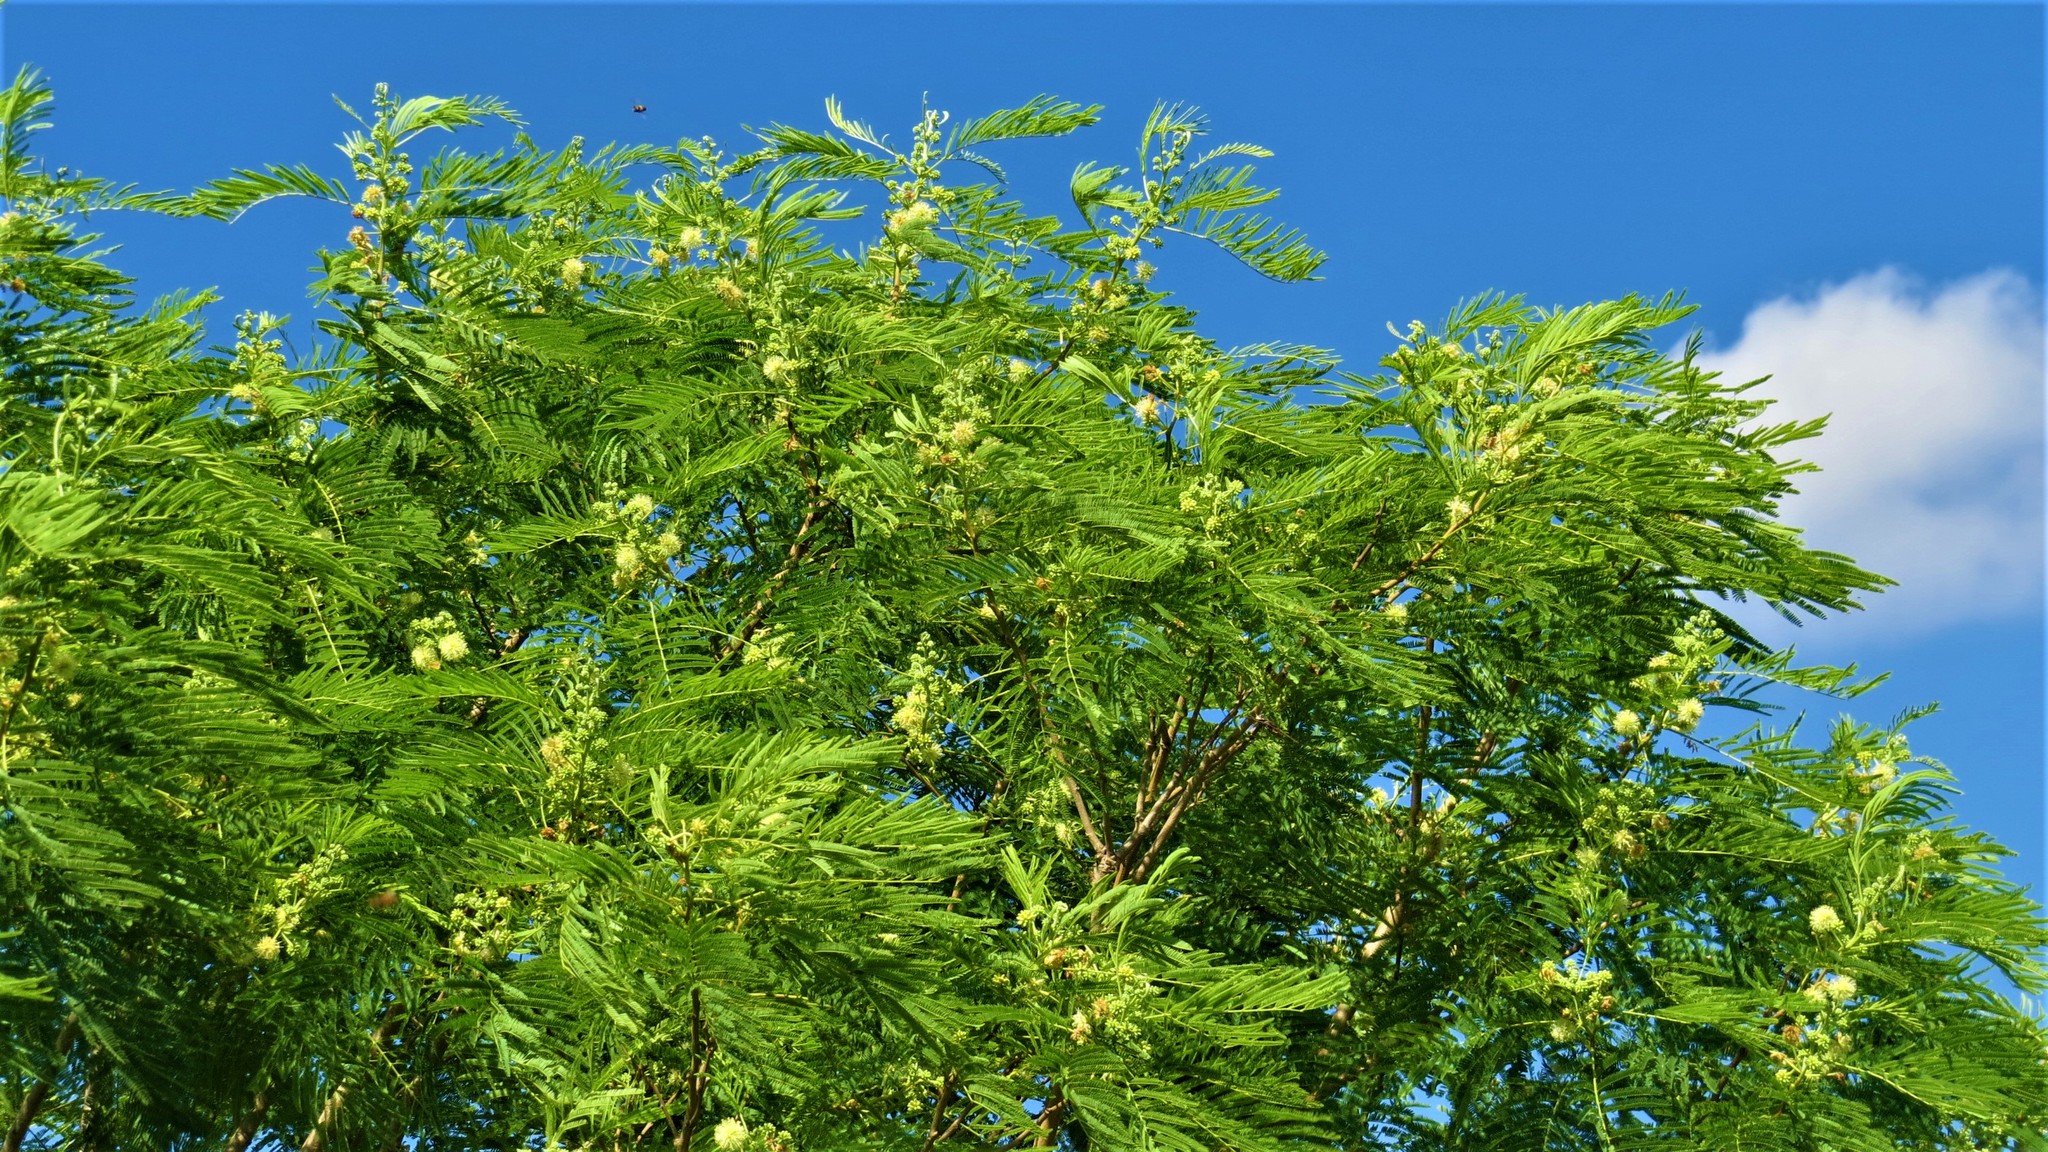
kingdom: Plantae
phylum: Tracheophyta
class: Magnoliopsida
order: Fabales
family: Fabaceae
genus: Leucaena
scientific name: Leucaena leucocephala
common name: White leadtree
